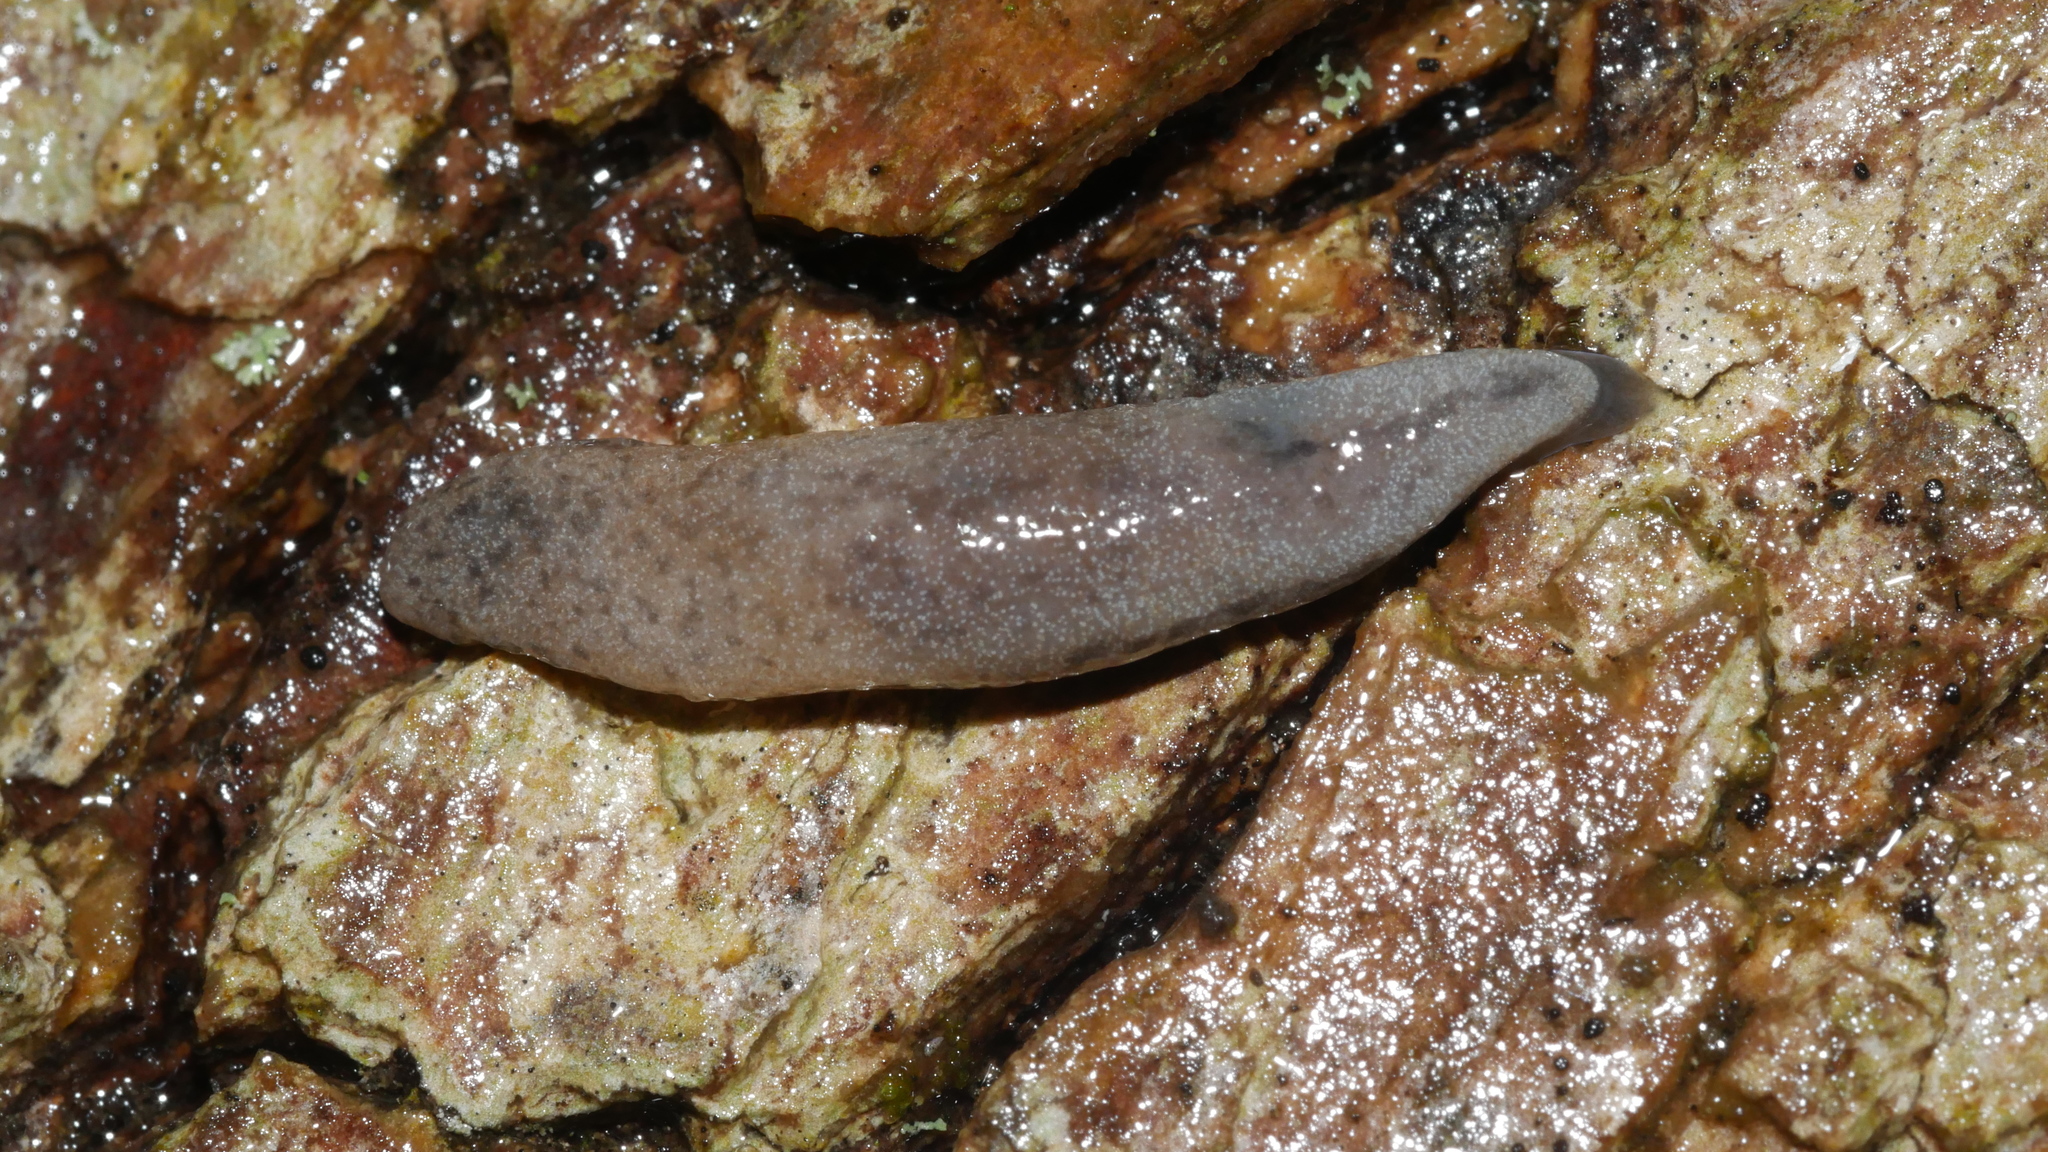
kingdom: Animalia
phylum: Mollusca
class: Gastropoda
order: Stylommatophora
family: Philomycidae
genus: Pallifera
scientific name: Pallifera
